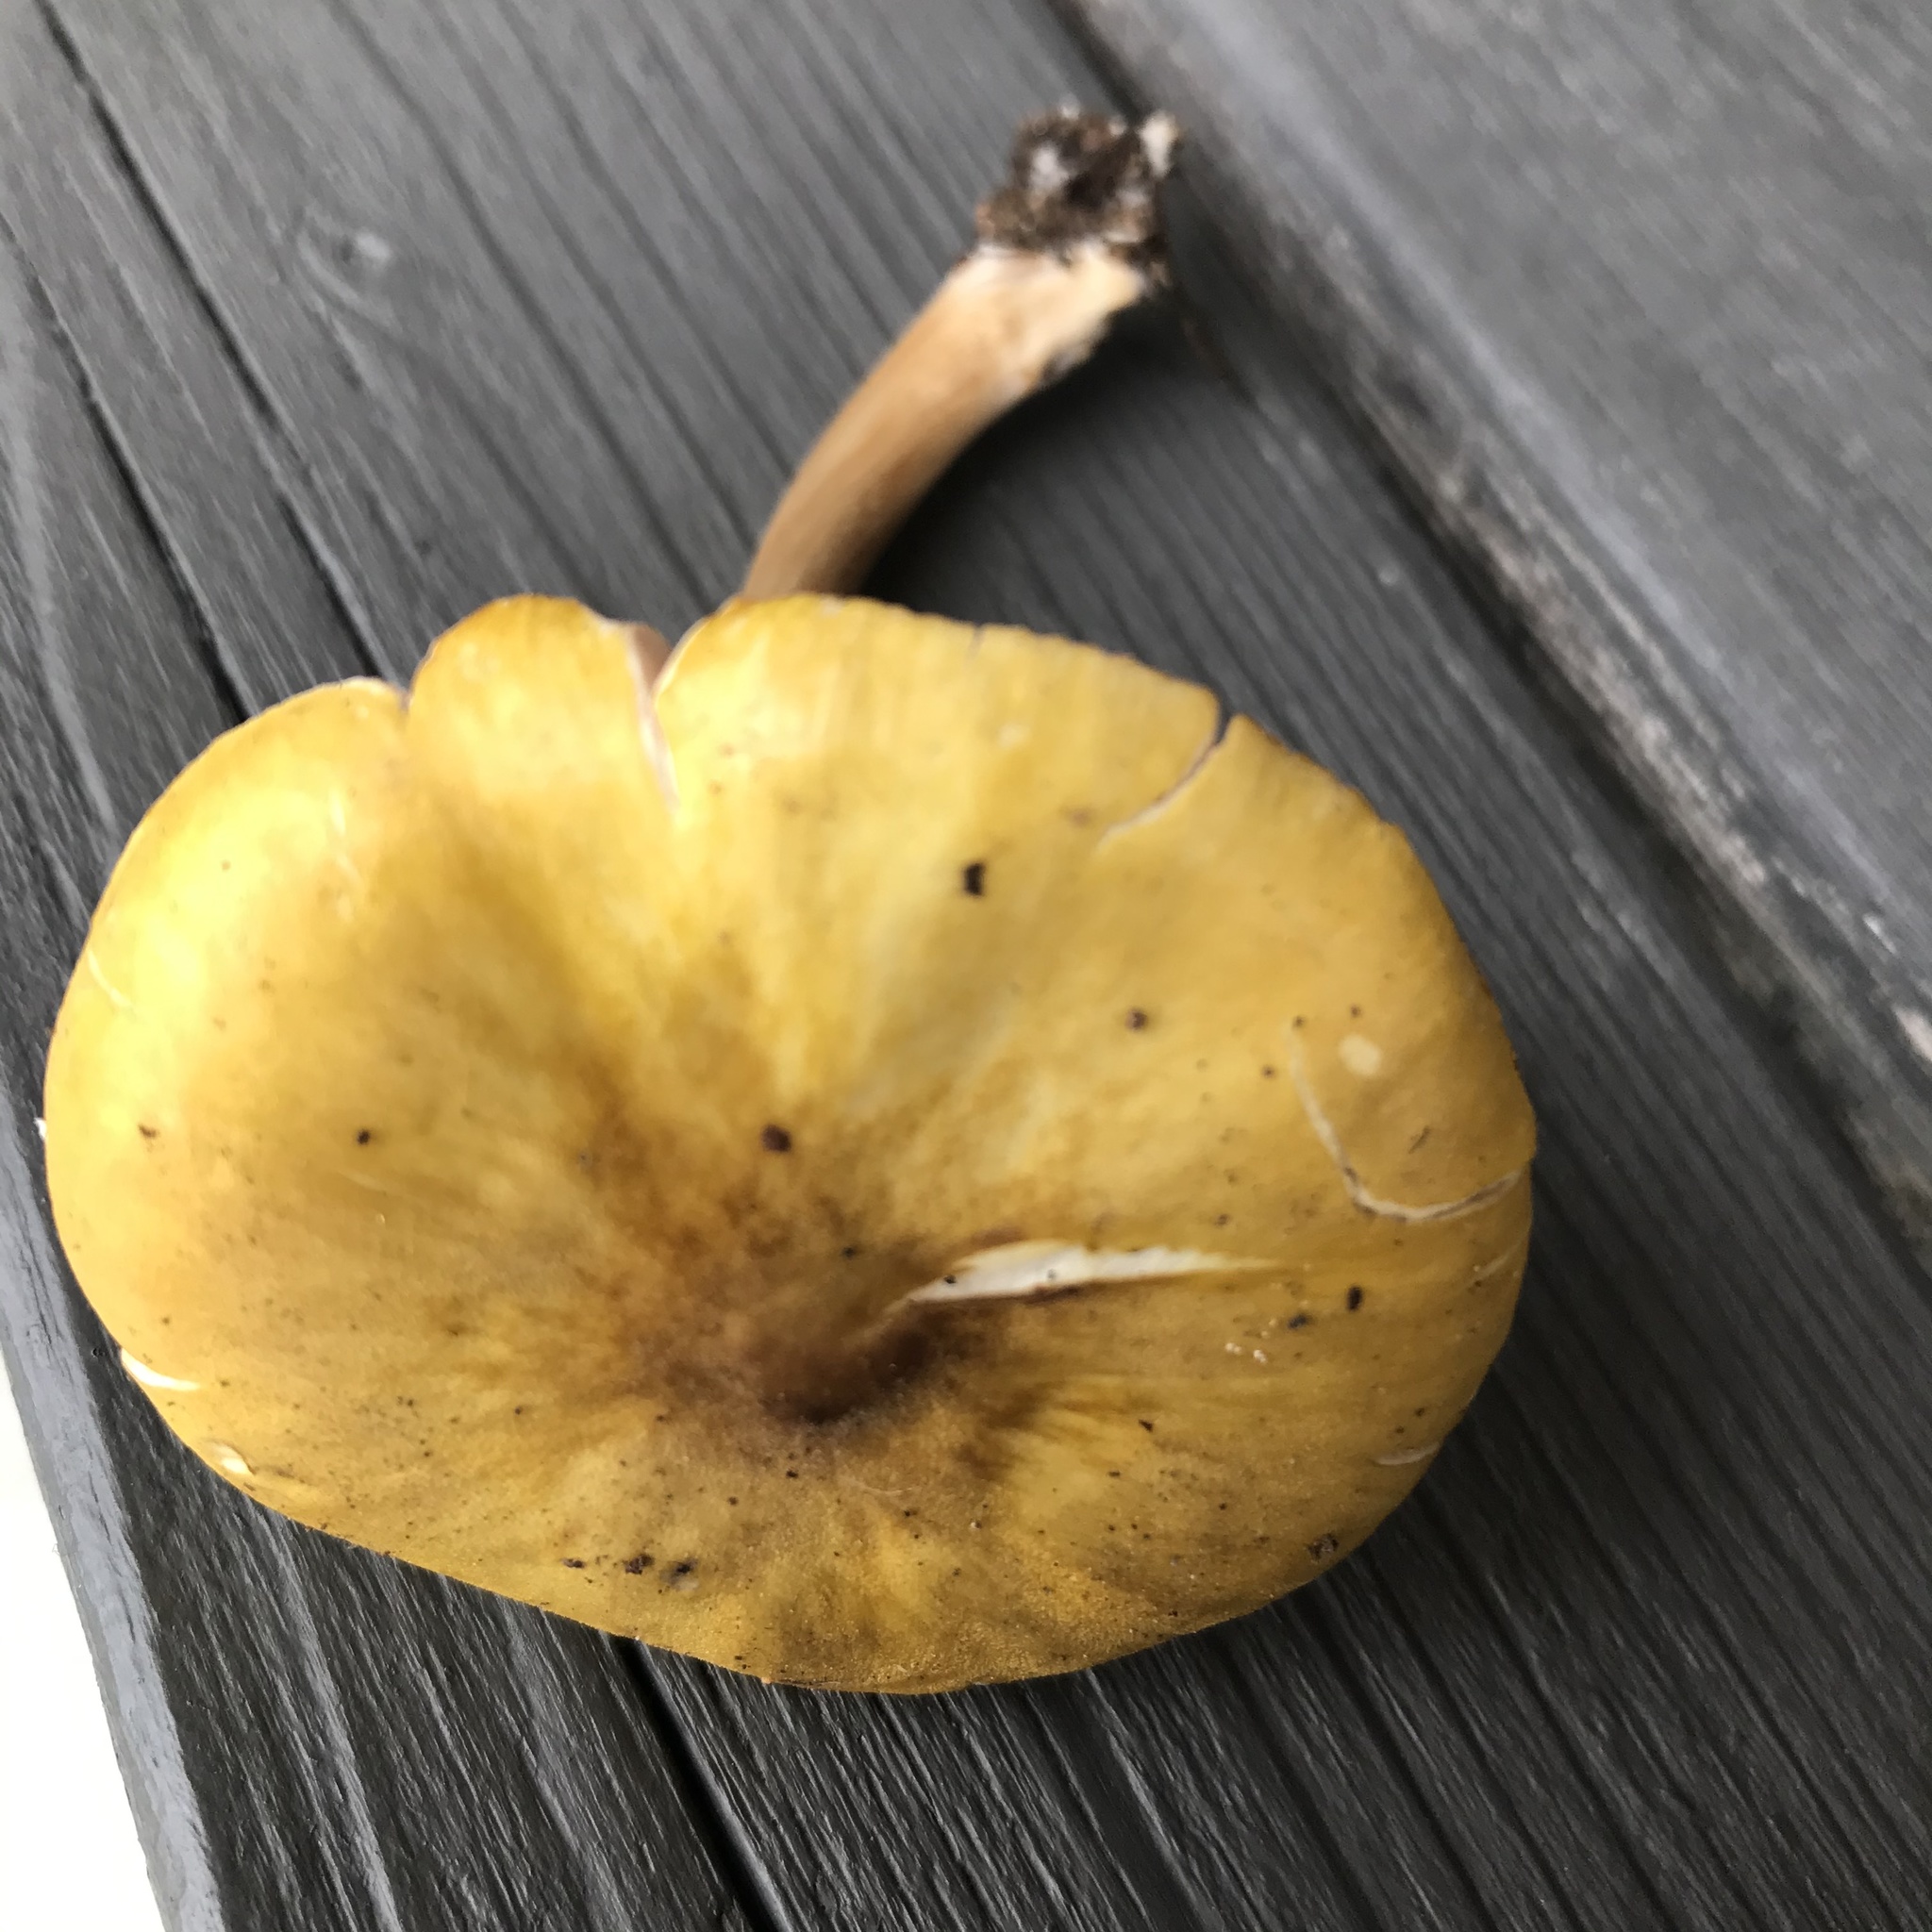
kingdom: Fungi
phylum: Basidiomycota
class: Agaricomycetes
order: Agaricales
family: Pluteaceae
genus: Pluteus
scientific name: Pluteus flavofuligineus
